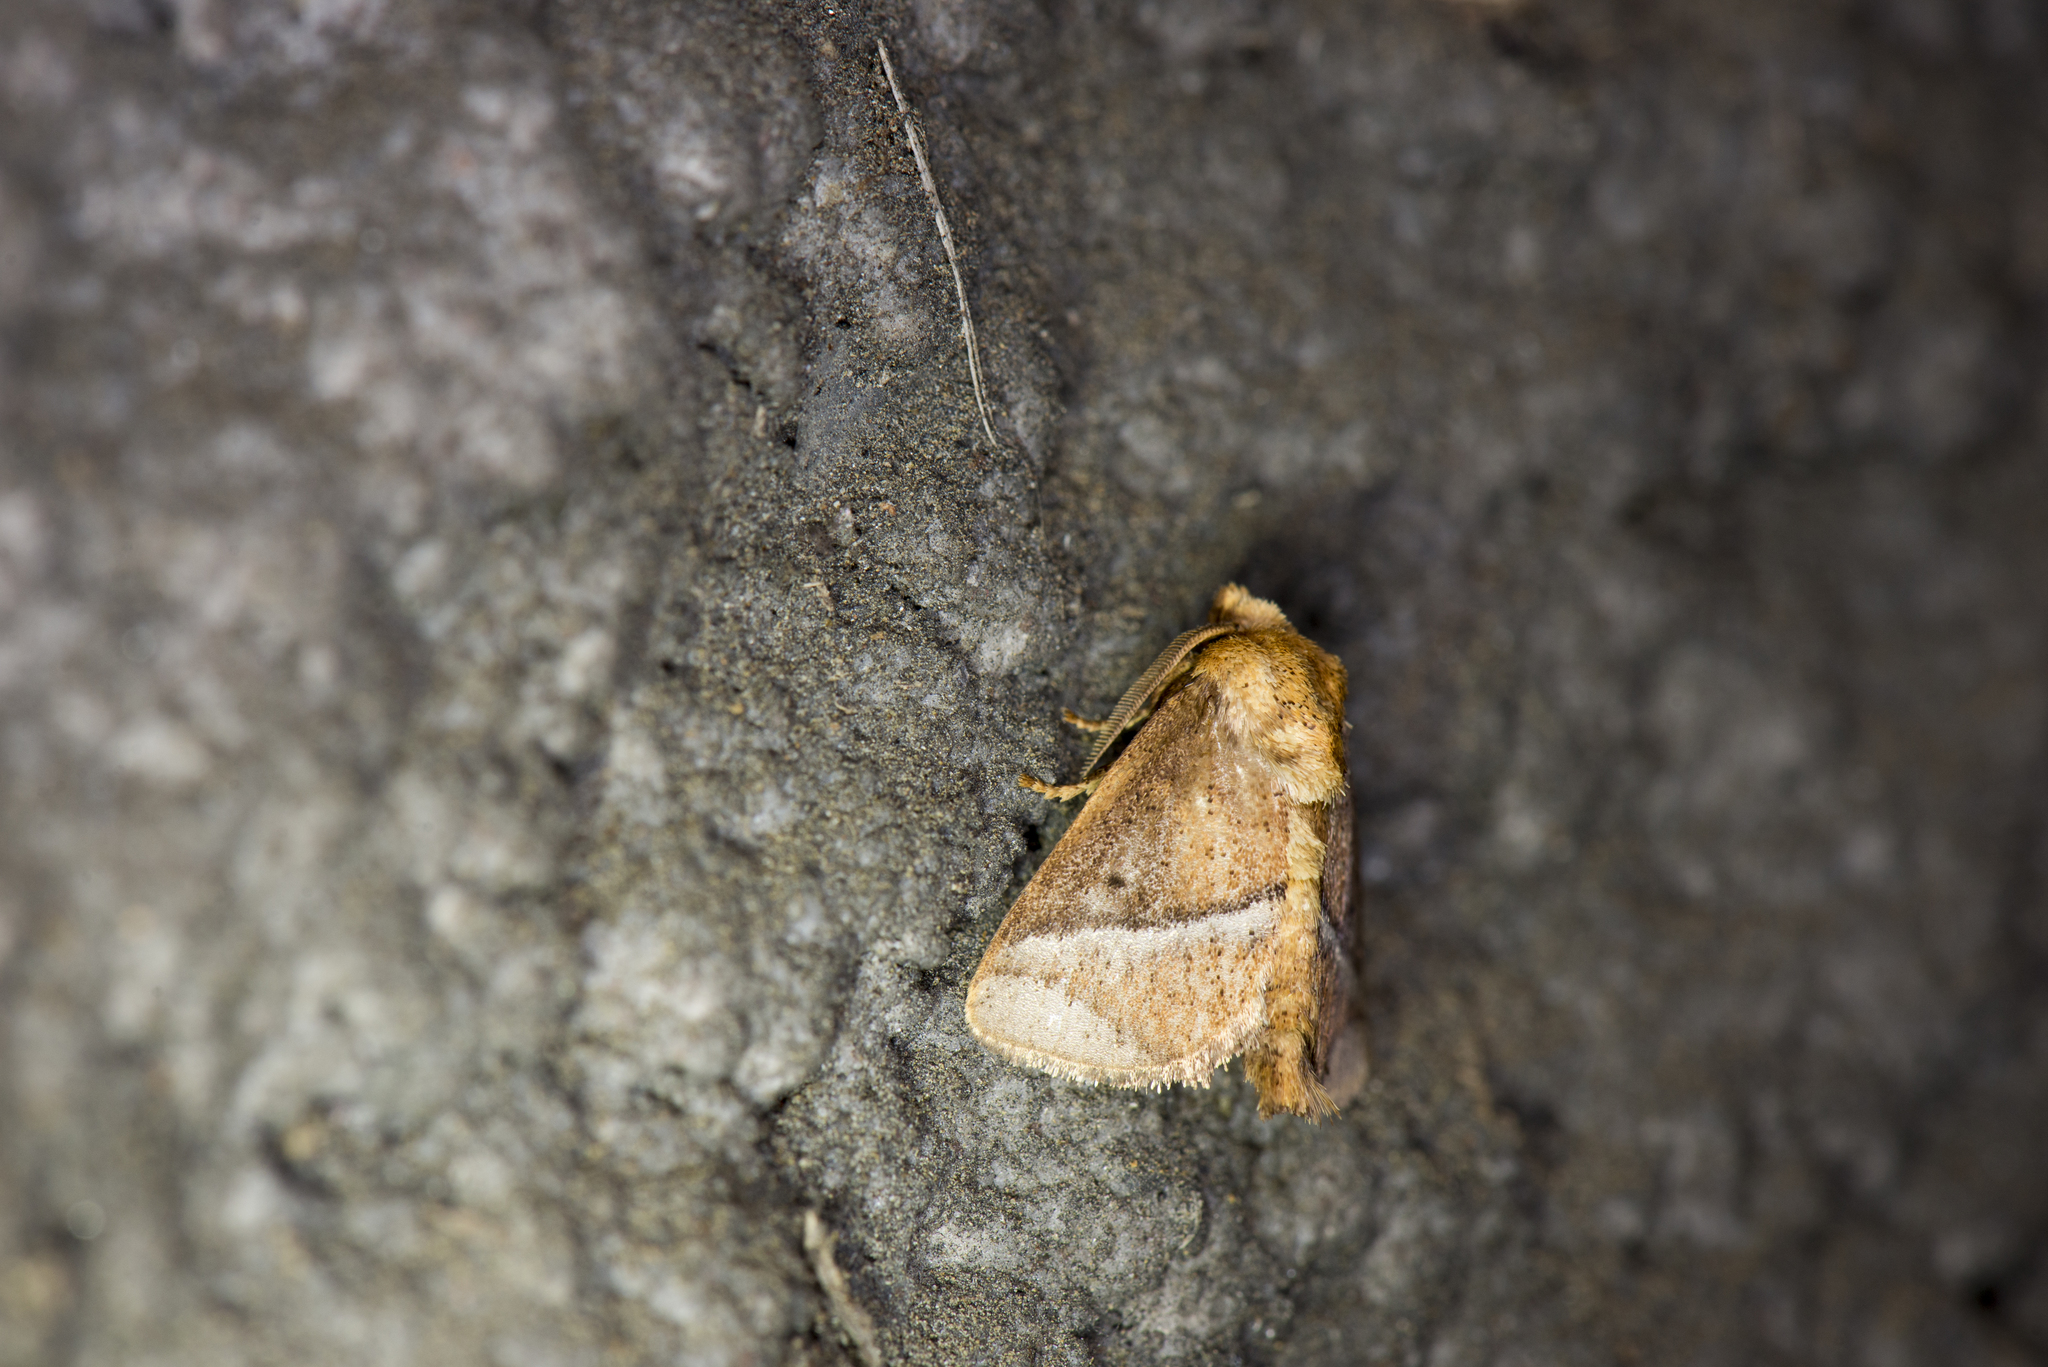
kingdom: Animalia
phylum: Arthropoda
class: Insecta
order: Lepidoptera
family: Limacodidae
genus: Birthamula
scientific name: Birthamula rufa
